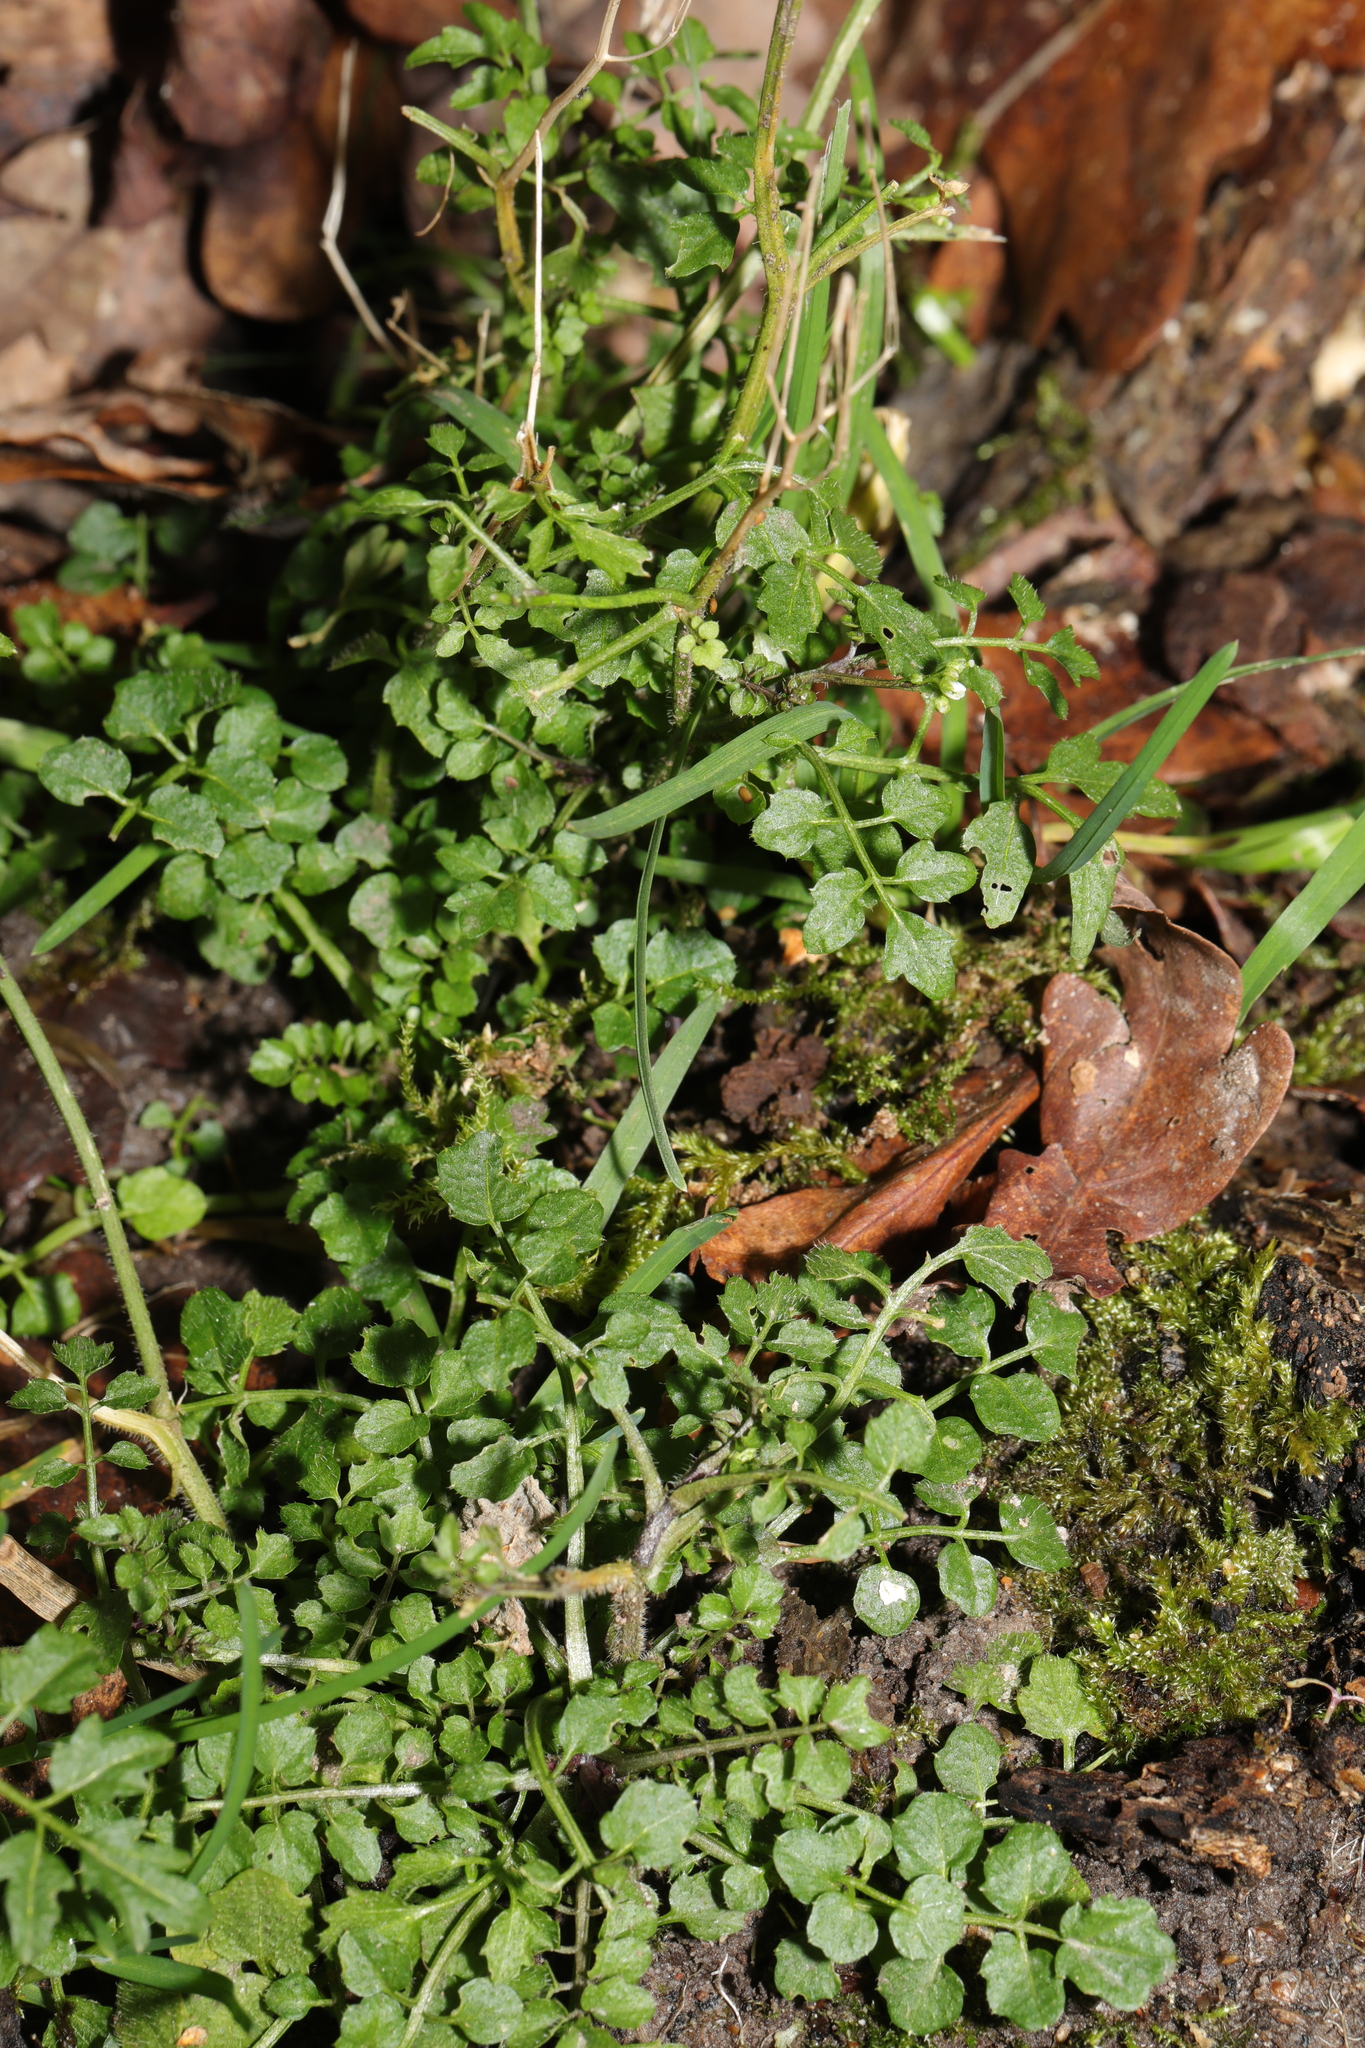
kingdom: Plantae
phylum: Tracheophyta
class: Magnoliopsida
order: Brassicales
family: Brassicaceae
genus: Cardamine
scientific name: Cardamine flexuosa
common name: Woodland bittercress
